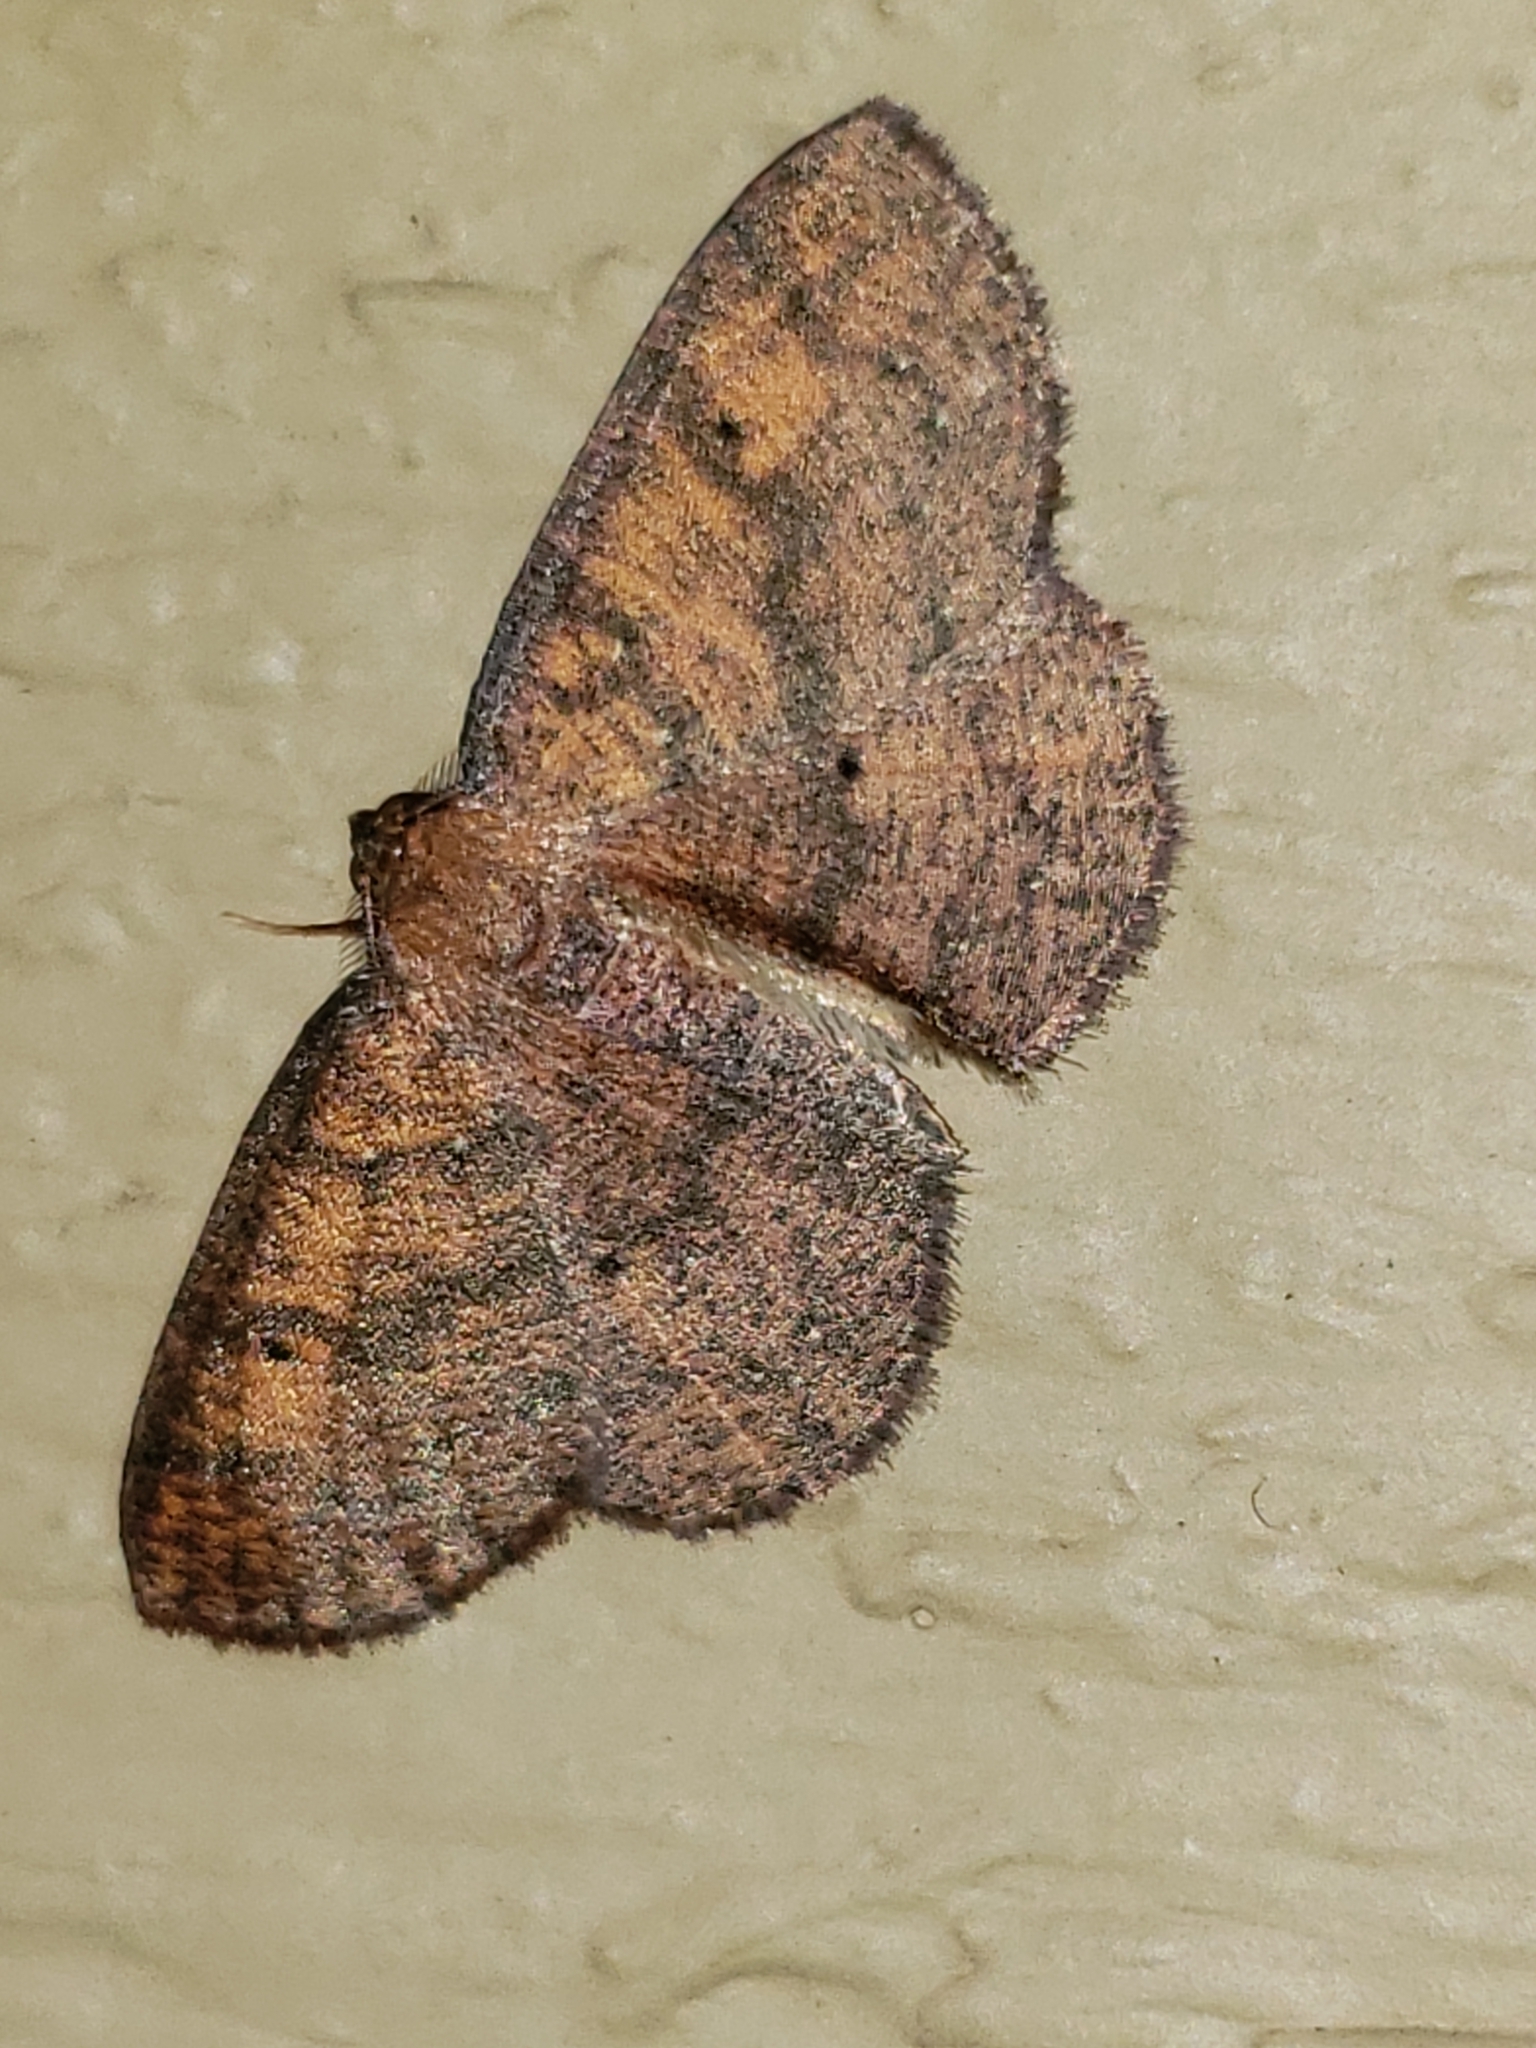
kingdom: Animalia
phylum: Arthropoda
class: Insecta
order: Lepidoptera
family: Geometridae
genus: Ilexia
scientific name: Ilexia intractata
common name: Black-dotted ruddy moth
